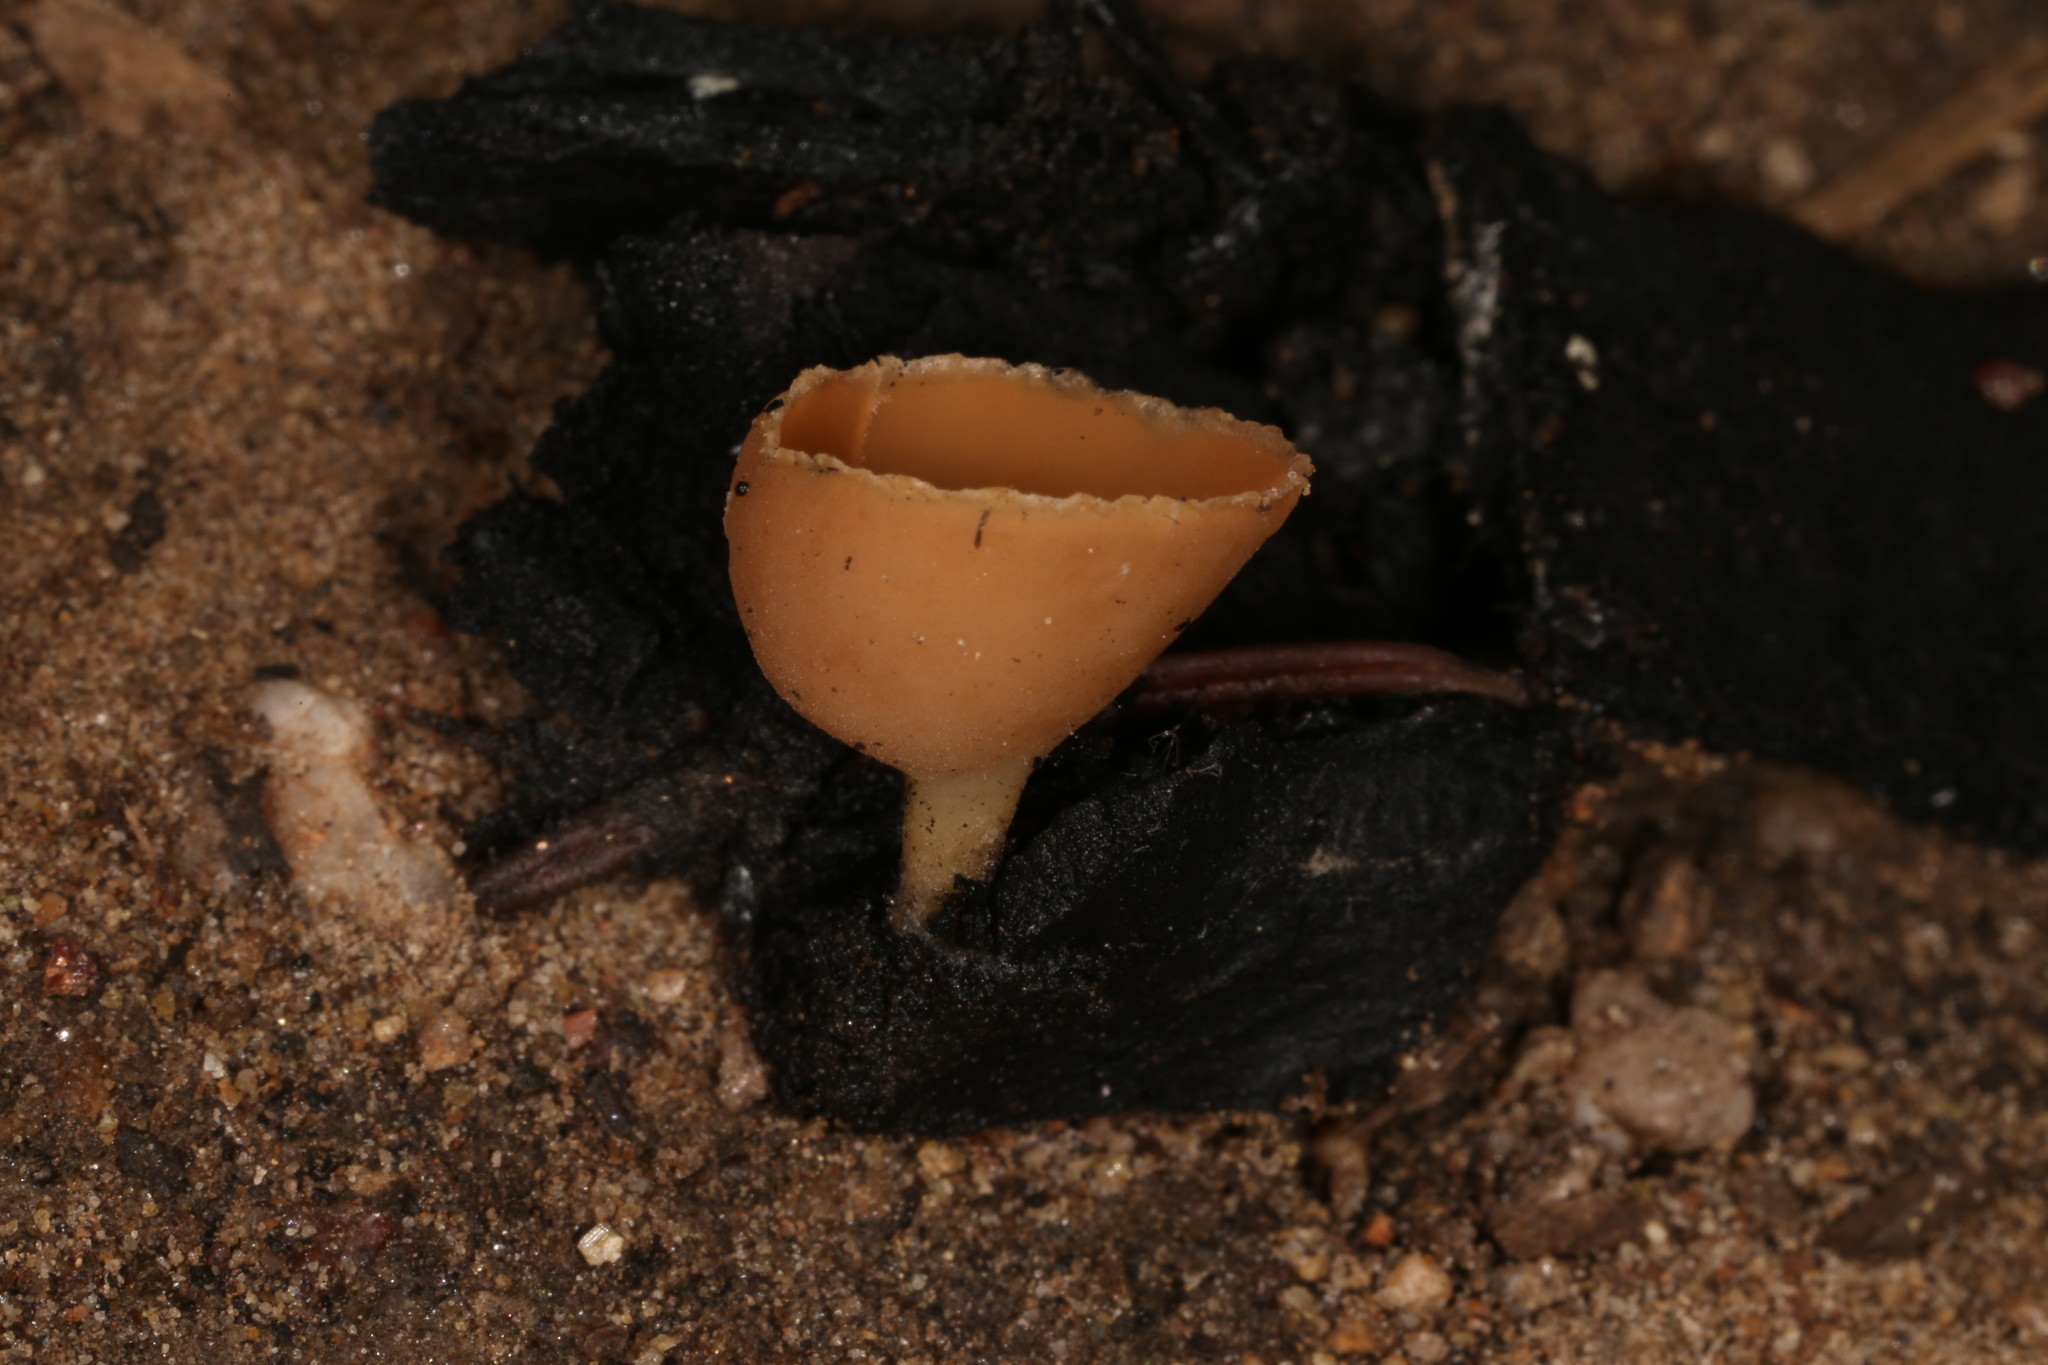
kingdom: Fungi
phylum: Ascomycota
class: Pezizomycetes
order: Pezizales
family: Pyronemataceae
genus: Geopyxis
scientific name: Geopyxis carbonaria
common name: Stalked bonfire cup
